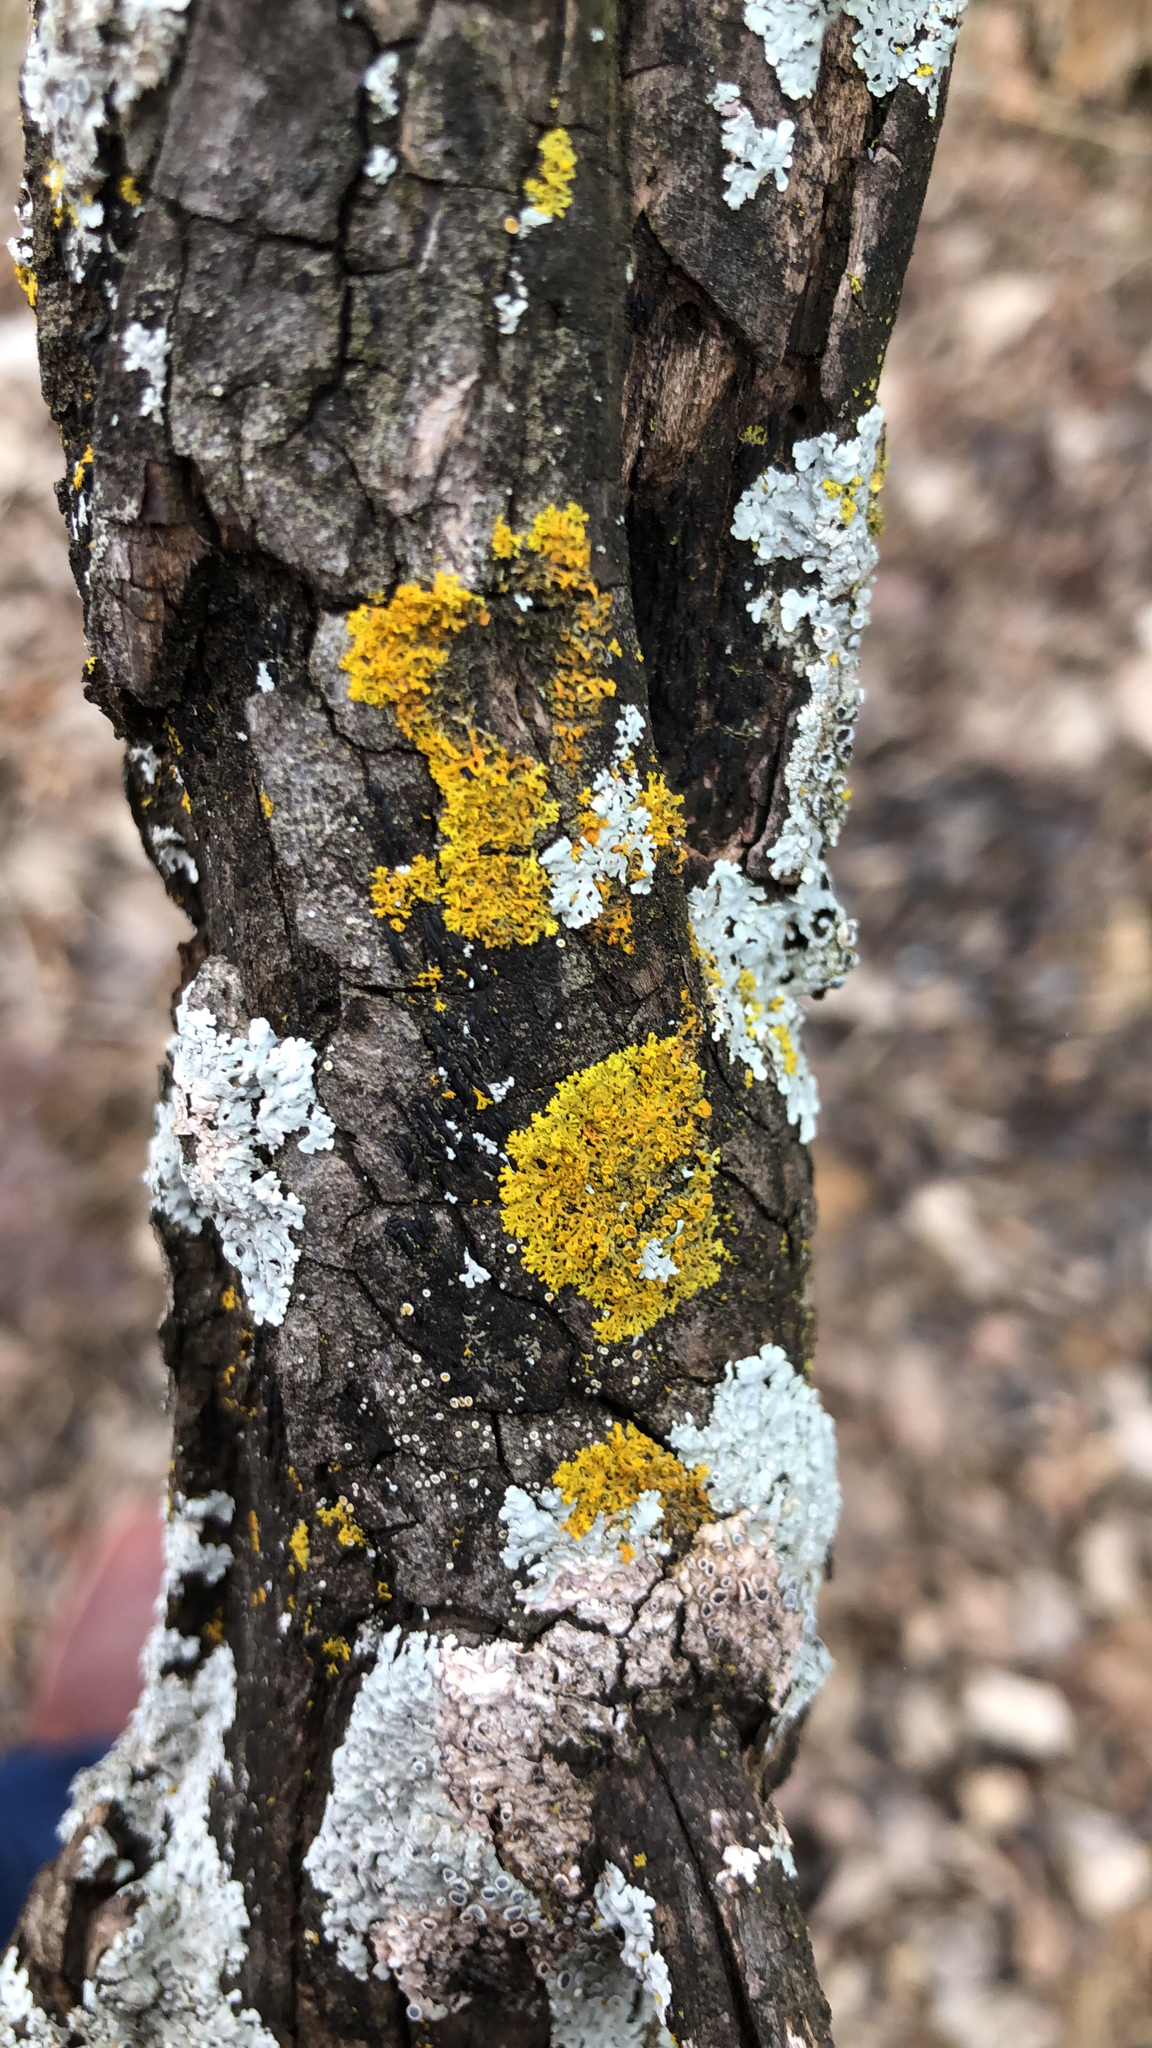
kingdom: Fungi
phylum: Ascomycota
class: Lecanoromycetes
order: Teloschistales
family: Teloschistaceae
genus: Oxneria
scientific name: Oxneria fallax
